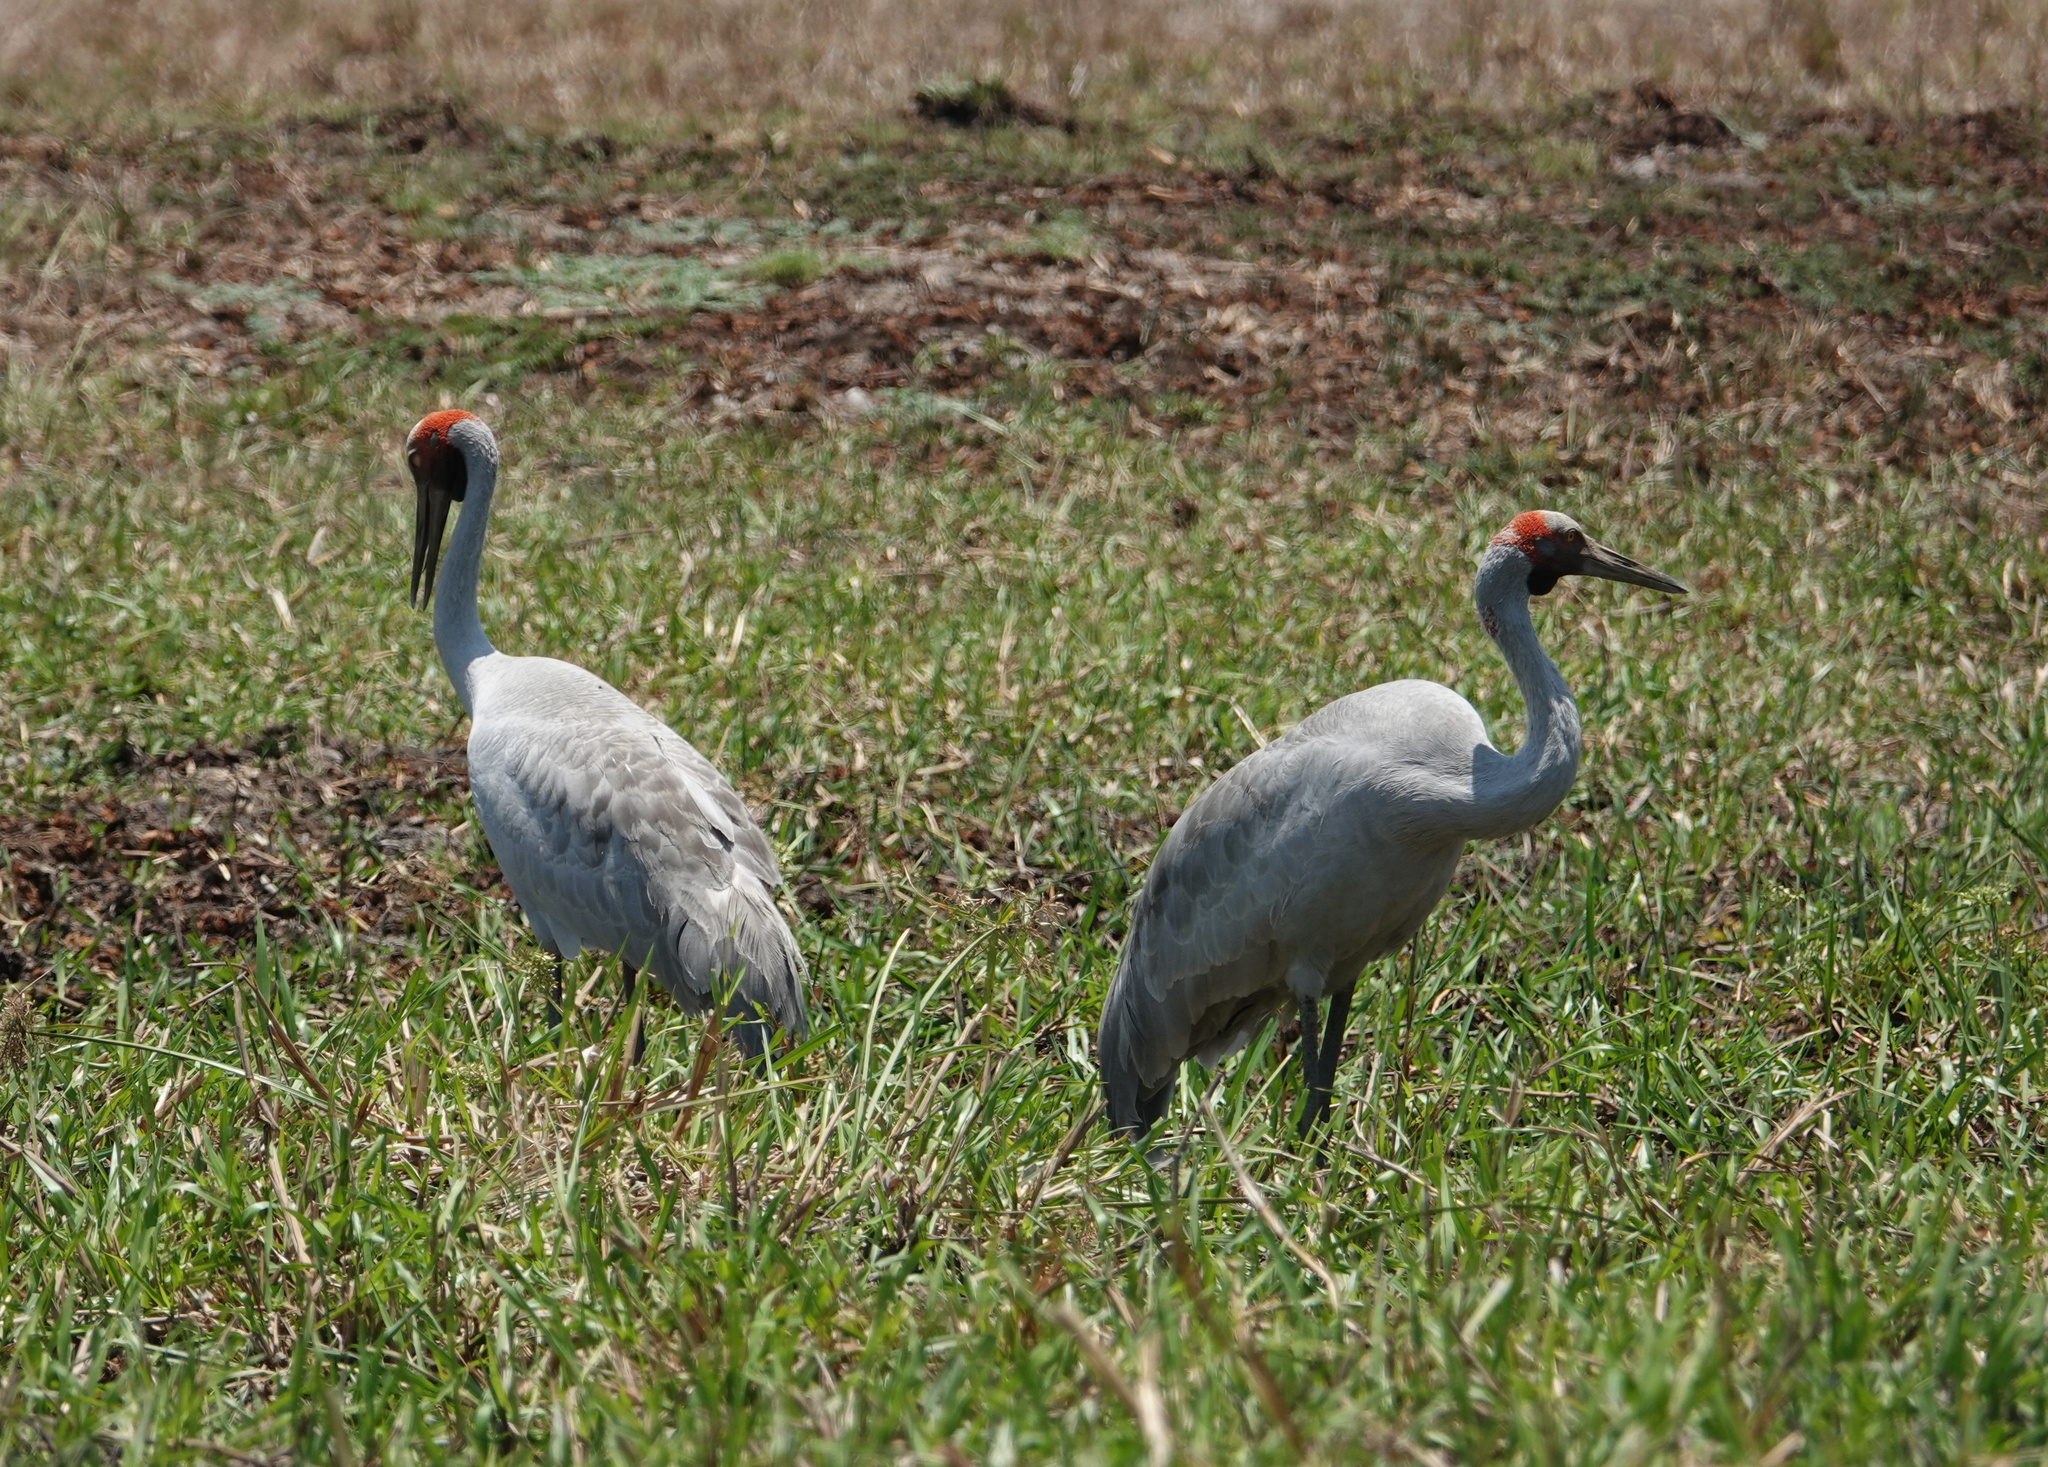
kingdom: Animalia
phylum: Chordata
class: Aves
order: Gruiformes
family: Gruidae
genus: Grus
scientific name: Grus rubicunda
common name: Brolga
